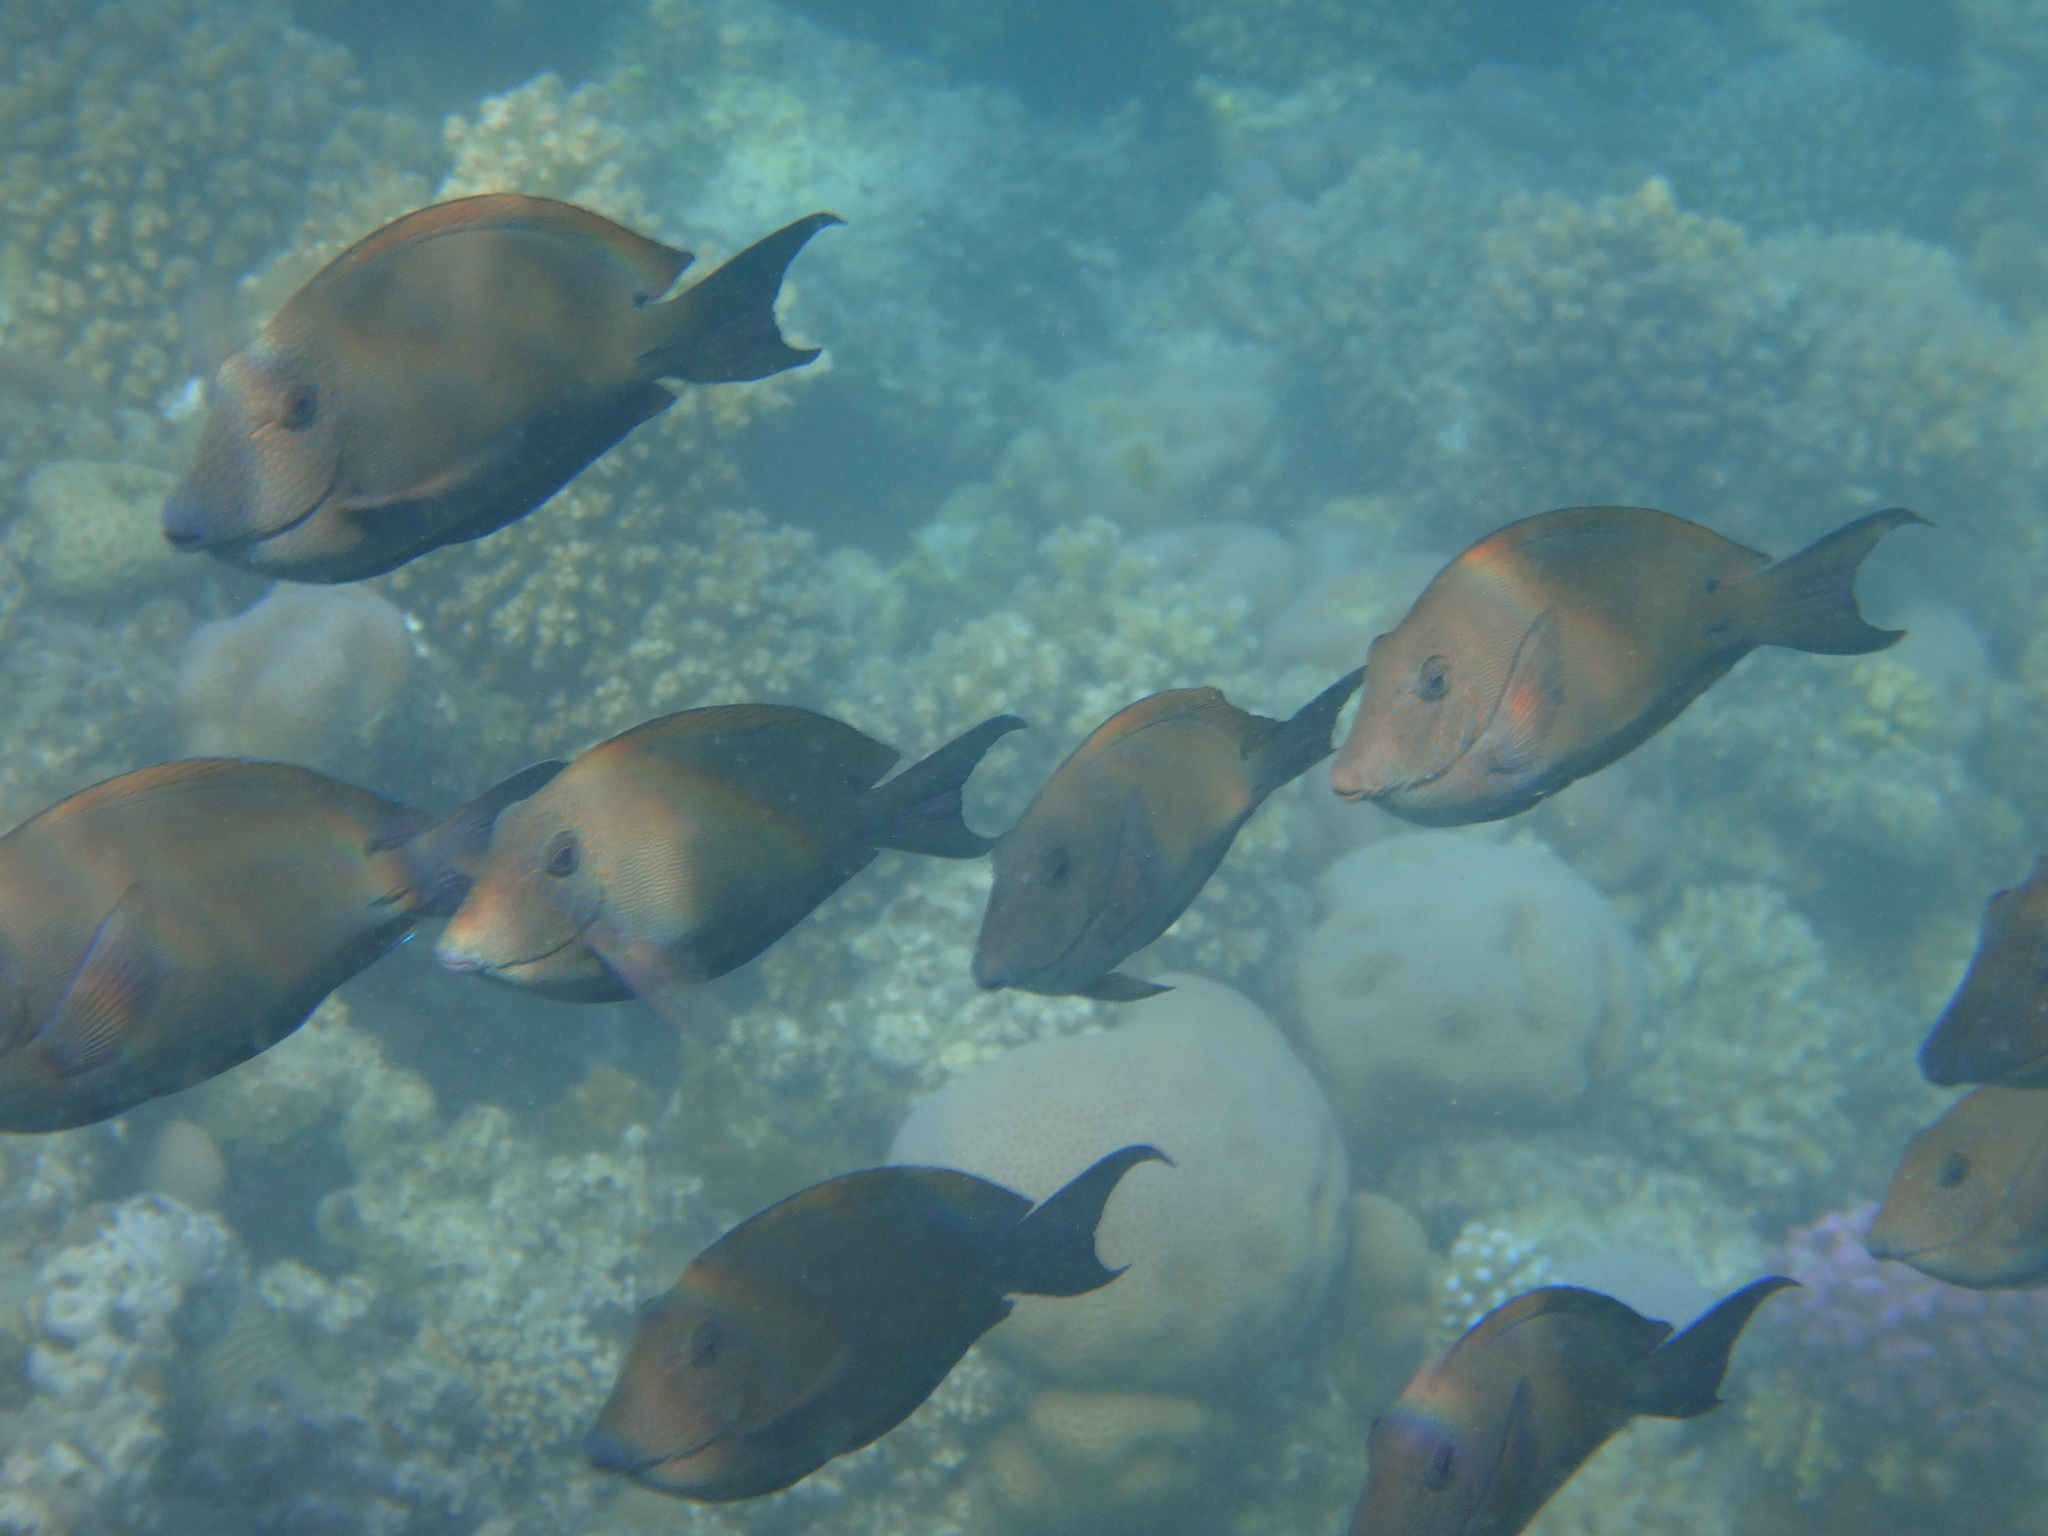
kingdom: Animalia
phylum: Chordata
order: Perciformes
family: Acanthuridae
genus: Acanthurus
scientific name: Acanthurus nigrofuscus
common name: Blackspot surgeonfish
